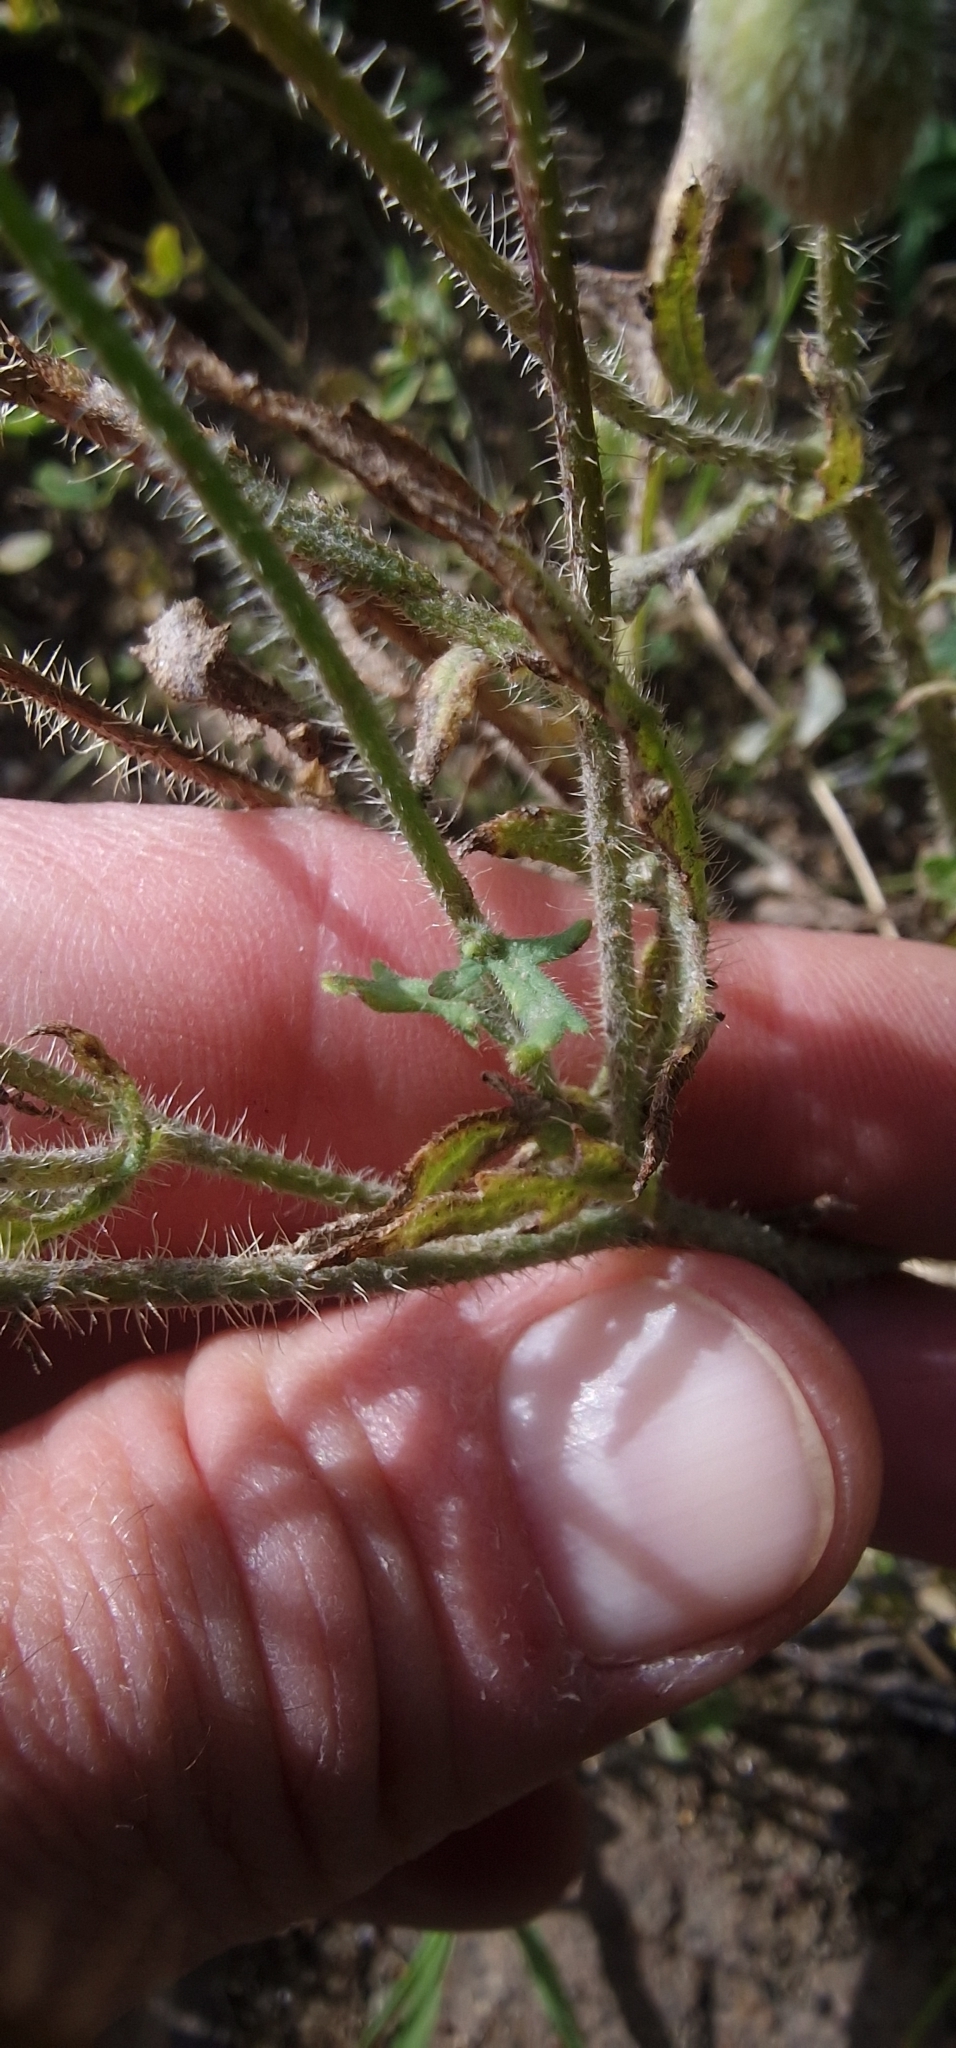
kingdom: Plantae
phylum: Tracheophyta
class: Magnoliopsida
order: Ranunculales
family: Papaveraceae
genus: Papaver
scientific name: Papaver rhoeas
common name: Corn poppy
